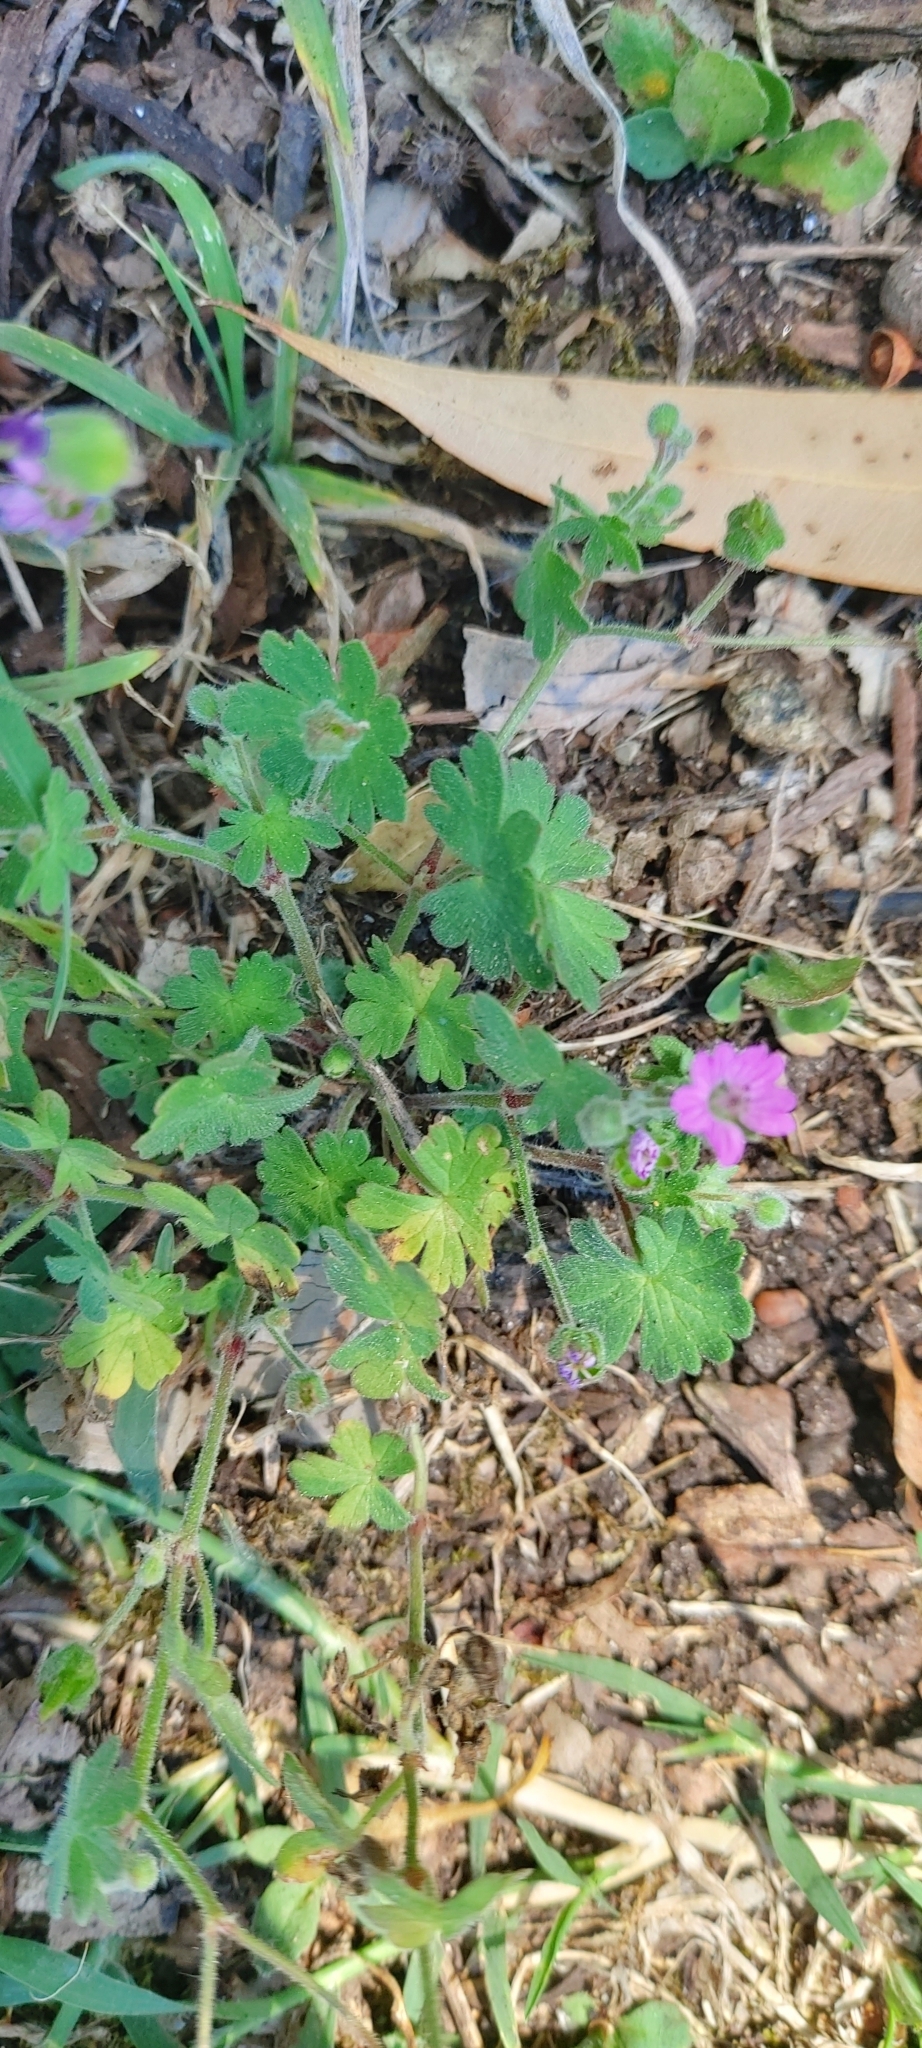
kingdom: Plantae
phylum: Tracheophyta
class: Magnoliopsida
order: Geraniales
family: Geraniaceae
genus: Geranium
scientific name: Geranium molle
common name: Dove's-foot crane's-bill
